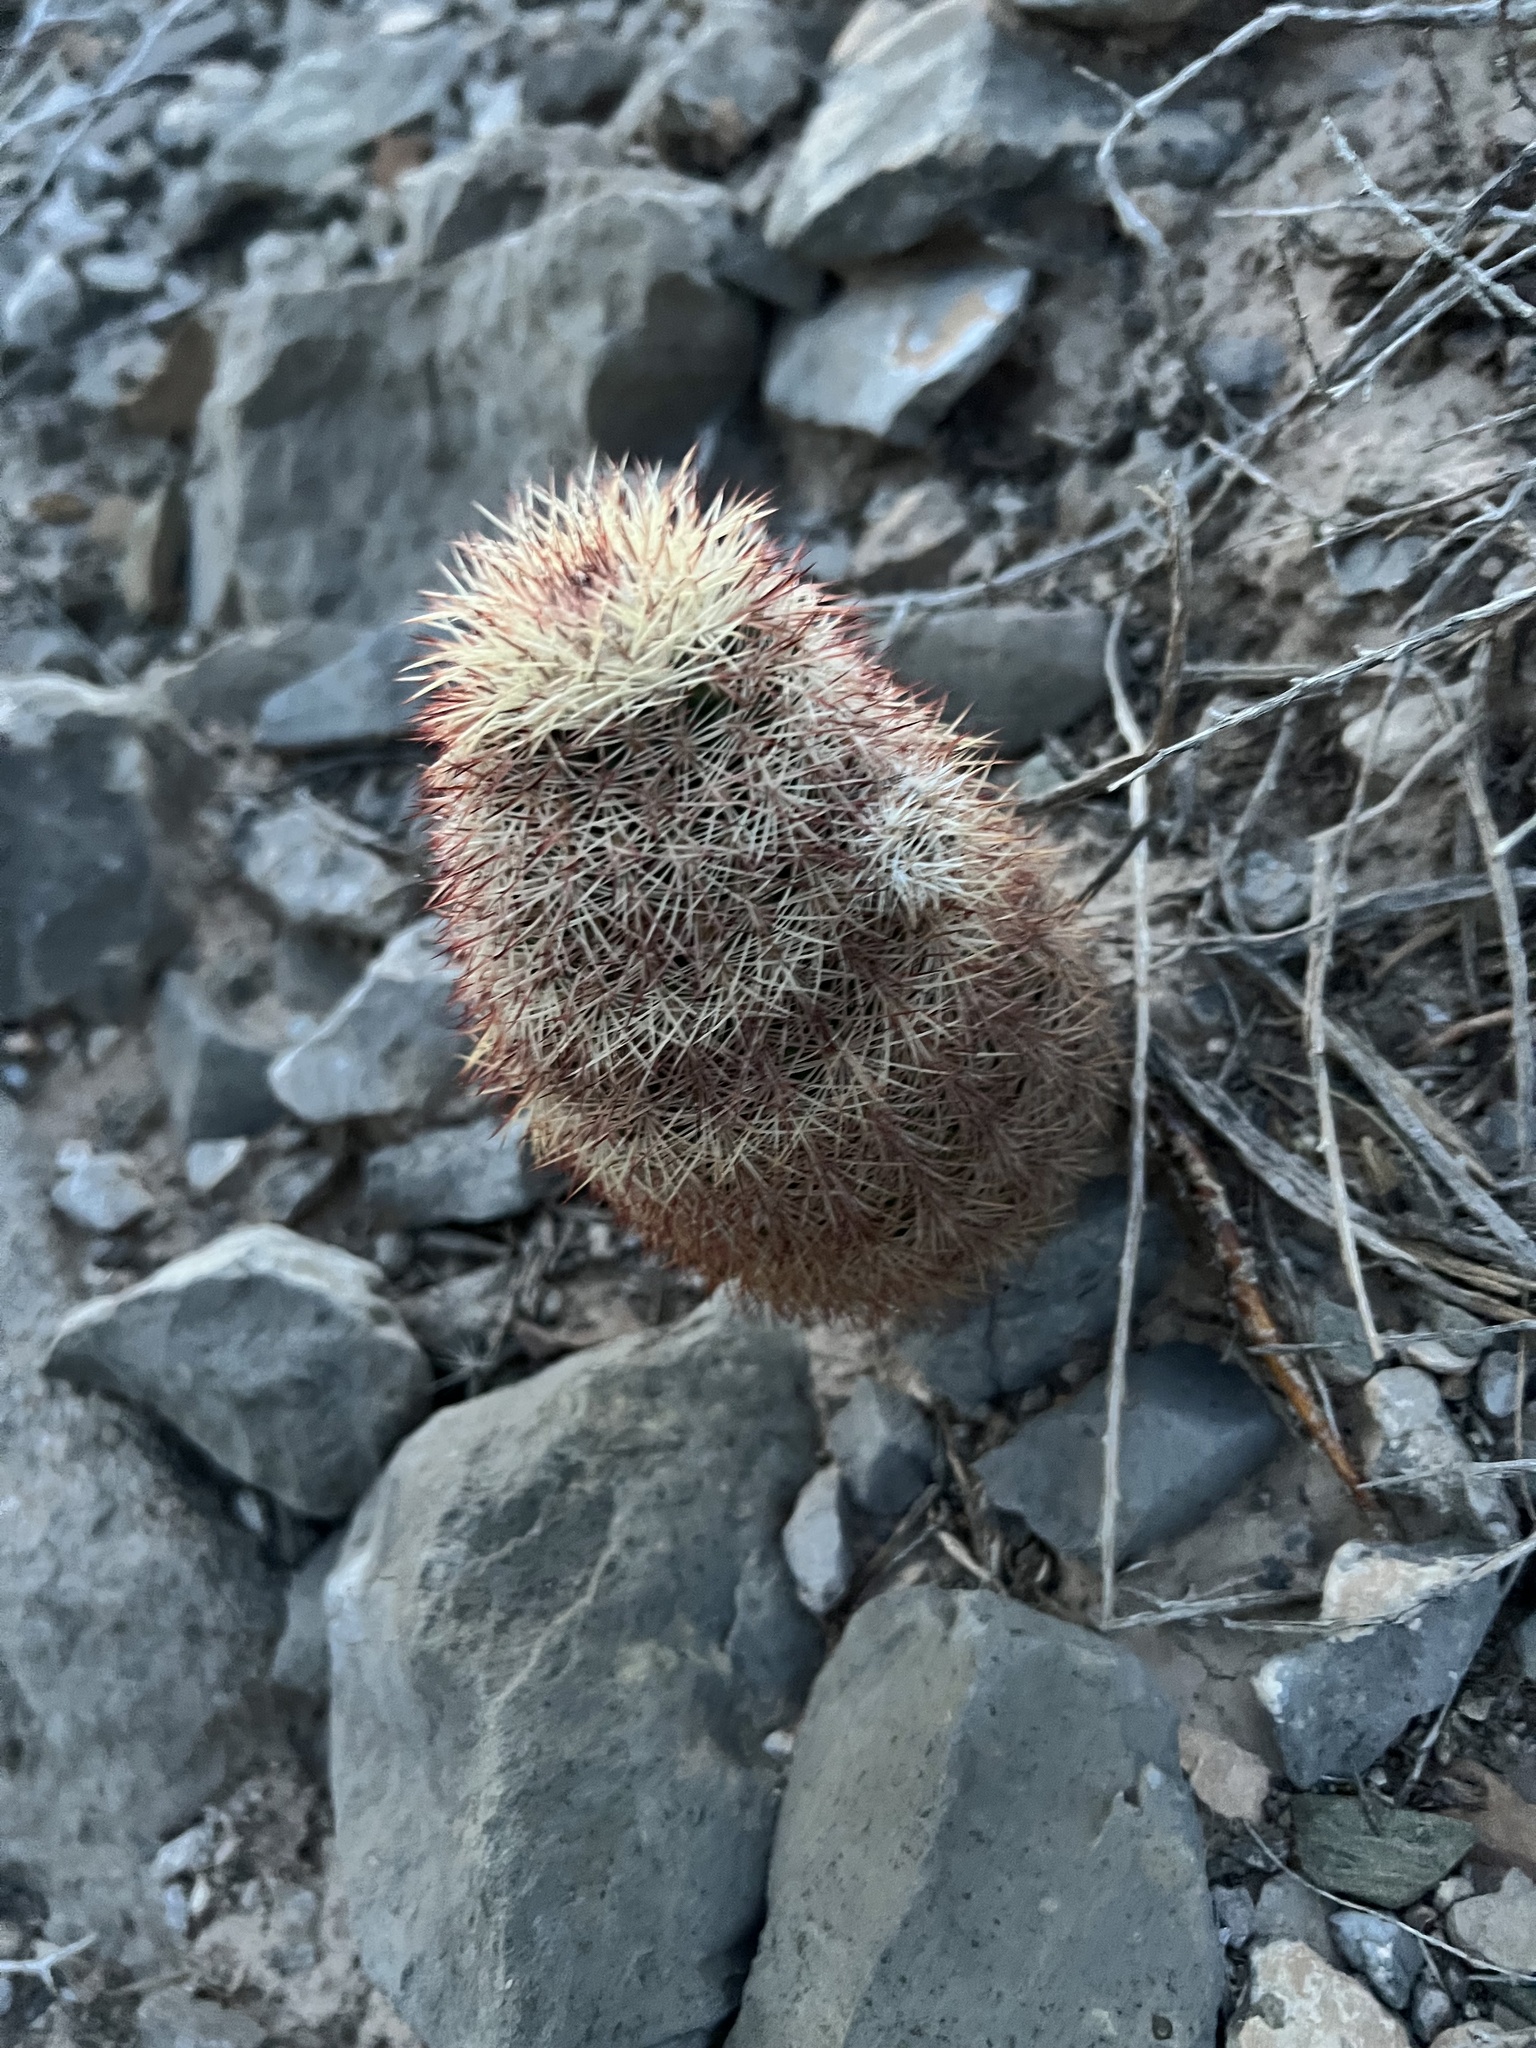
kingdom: Plantae
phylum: Tracheophyta
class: Magnoliopsida
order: Caryophyllales
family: Cactaceae
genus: Echinocereus
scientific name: Echinocereus dasyacanthus
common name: Spiny hedgehog cactus
